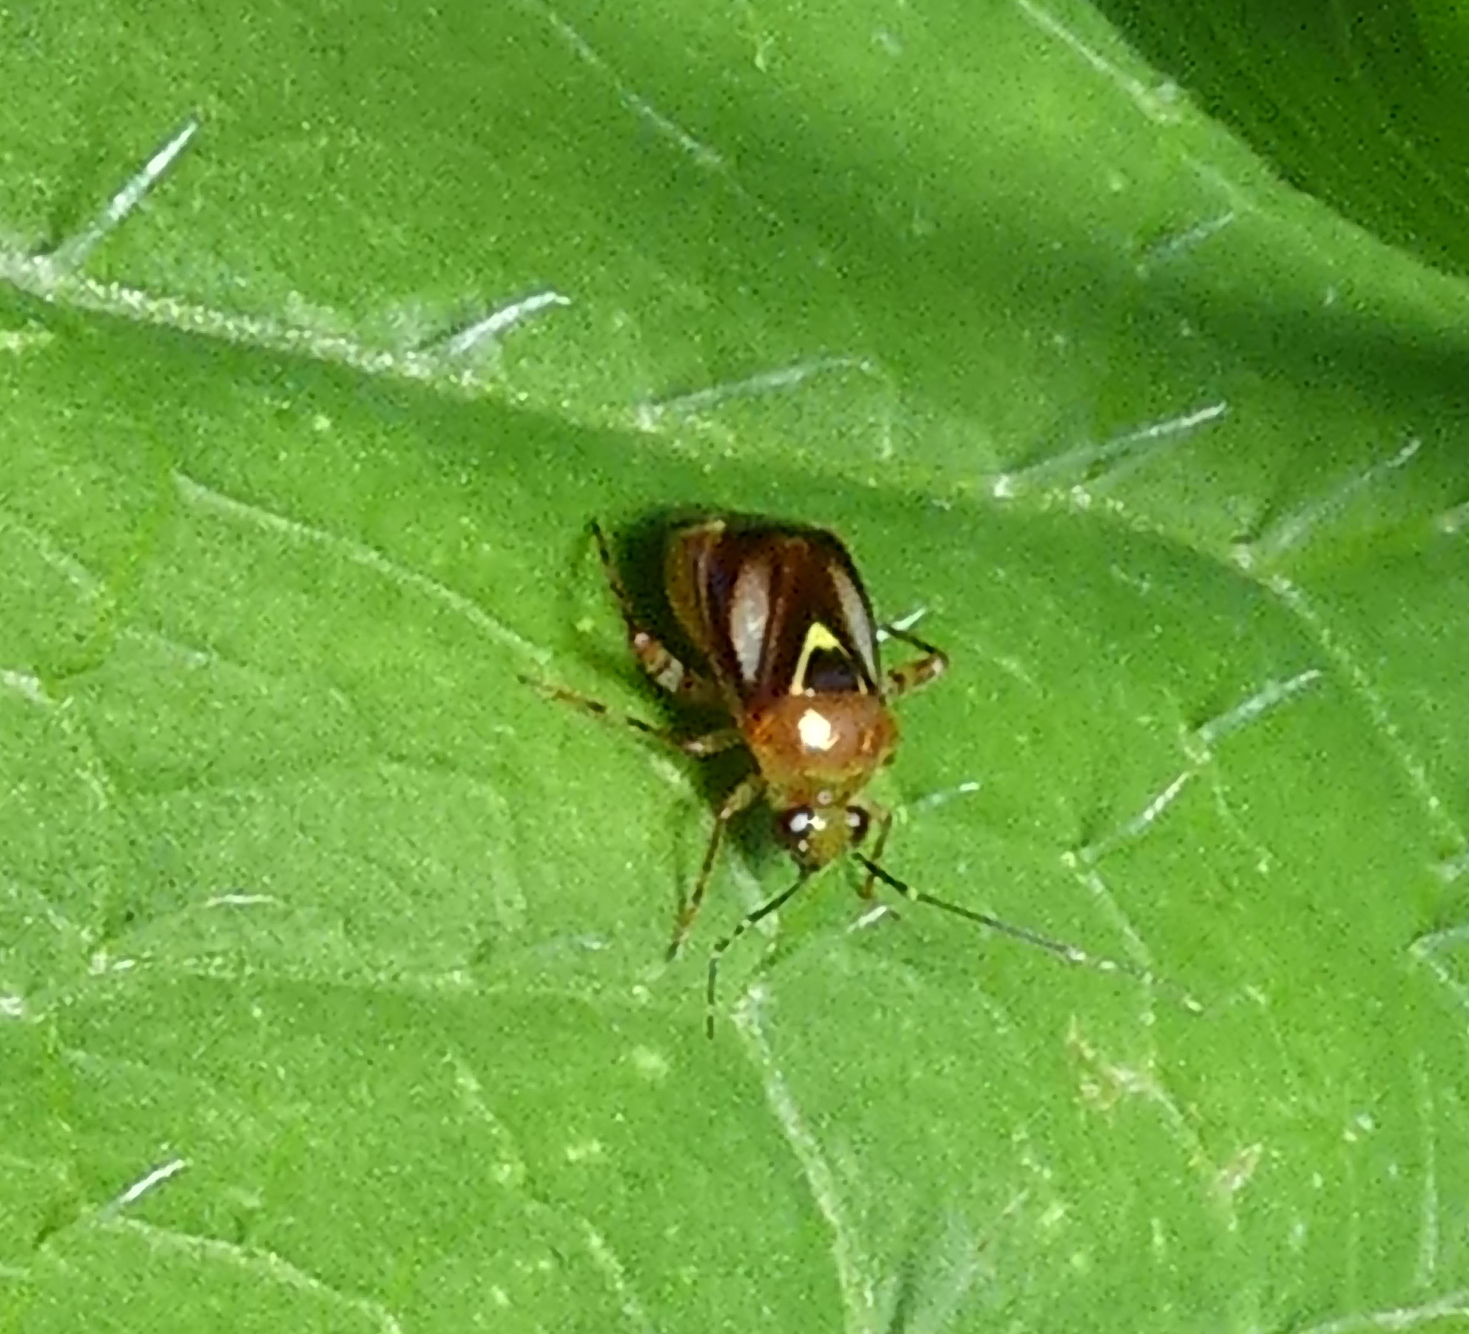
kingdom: Animalia
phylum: Arthropoda
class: Insecta
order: Hemiptera
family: Miridae
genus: Horciasoides
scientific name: Horciasoides minensis
